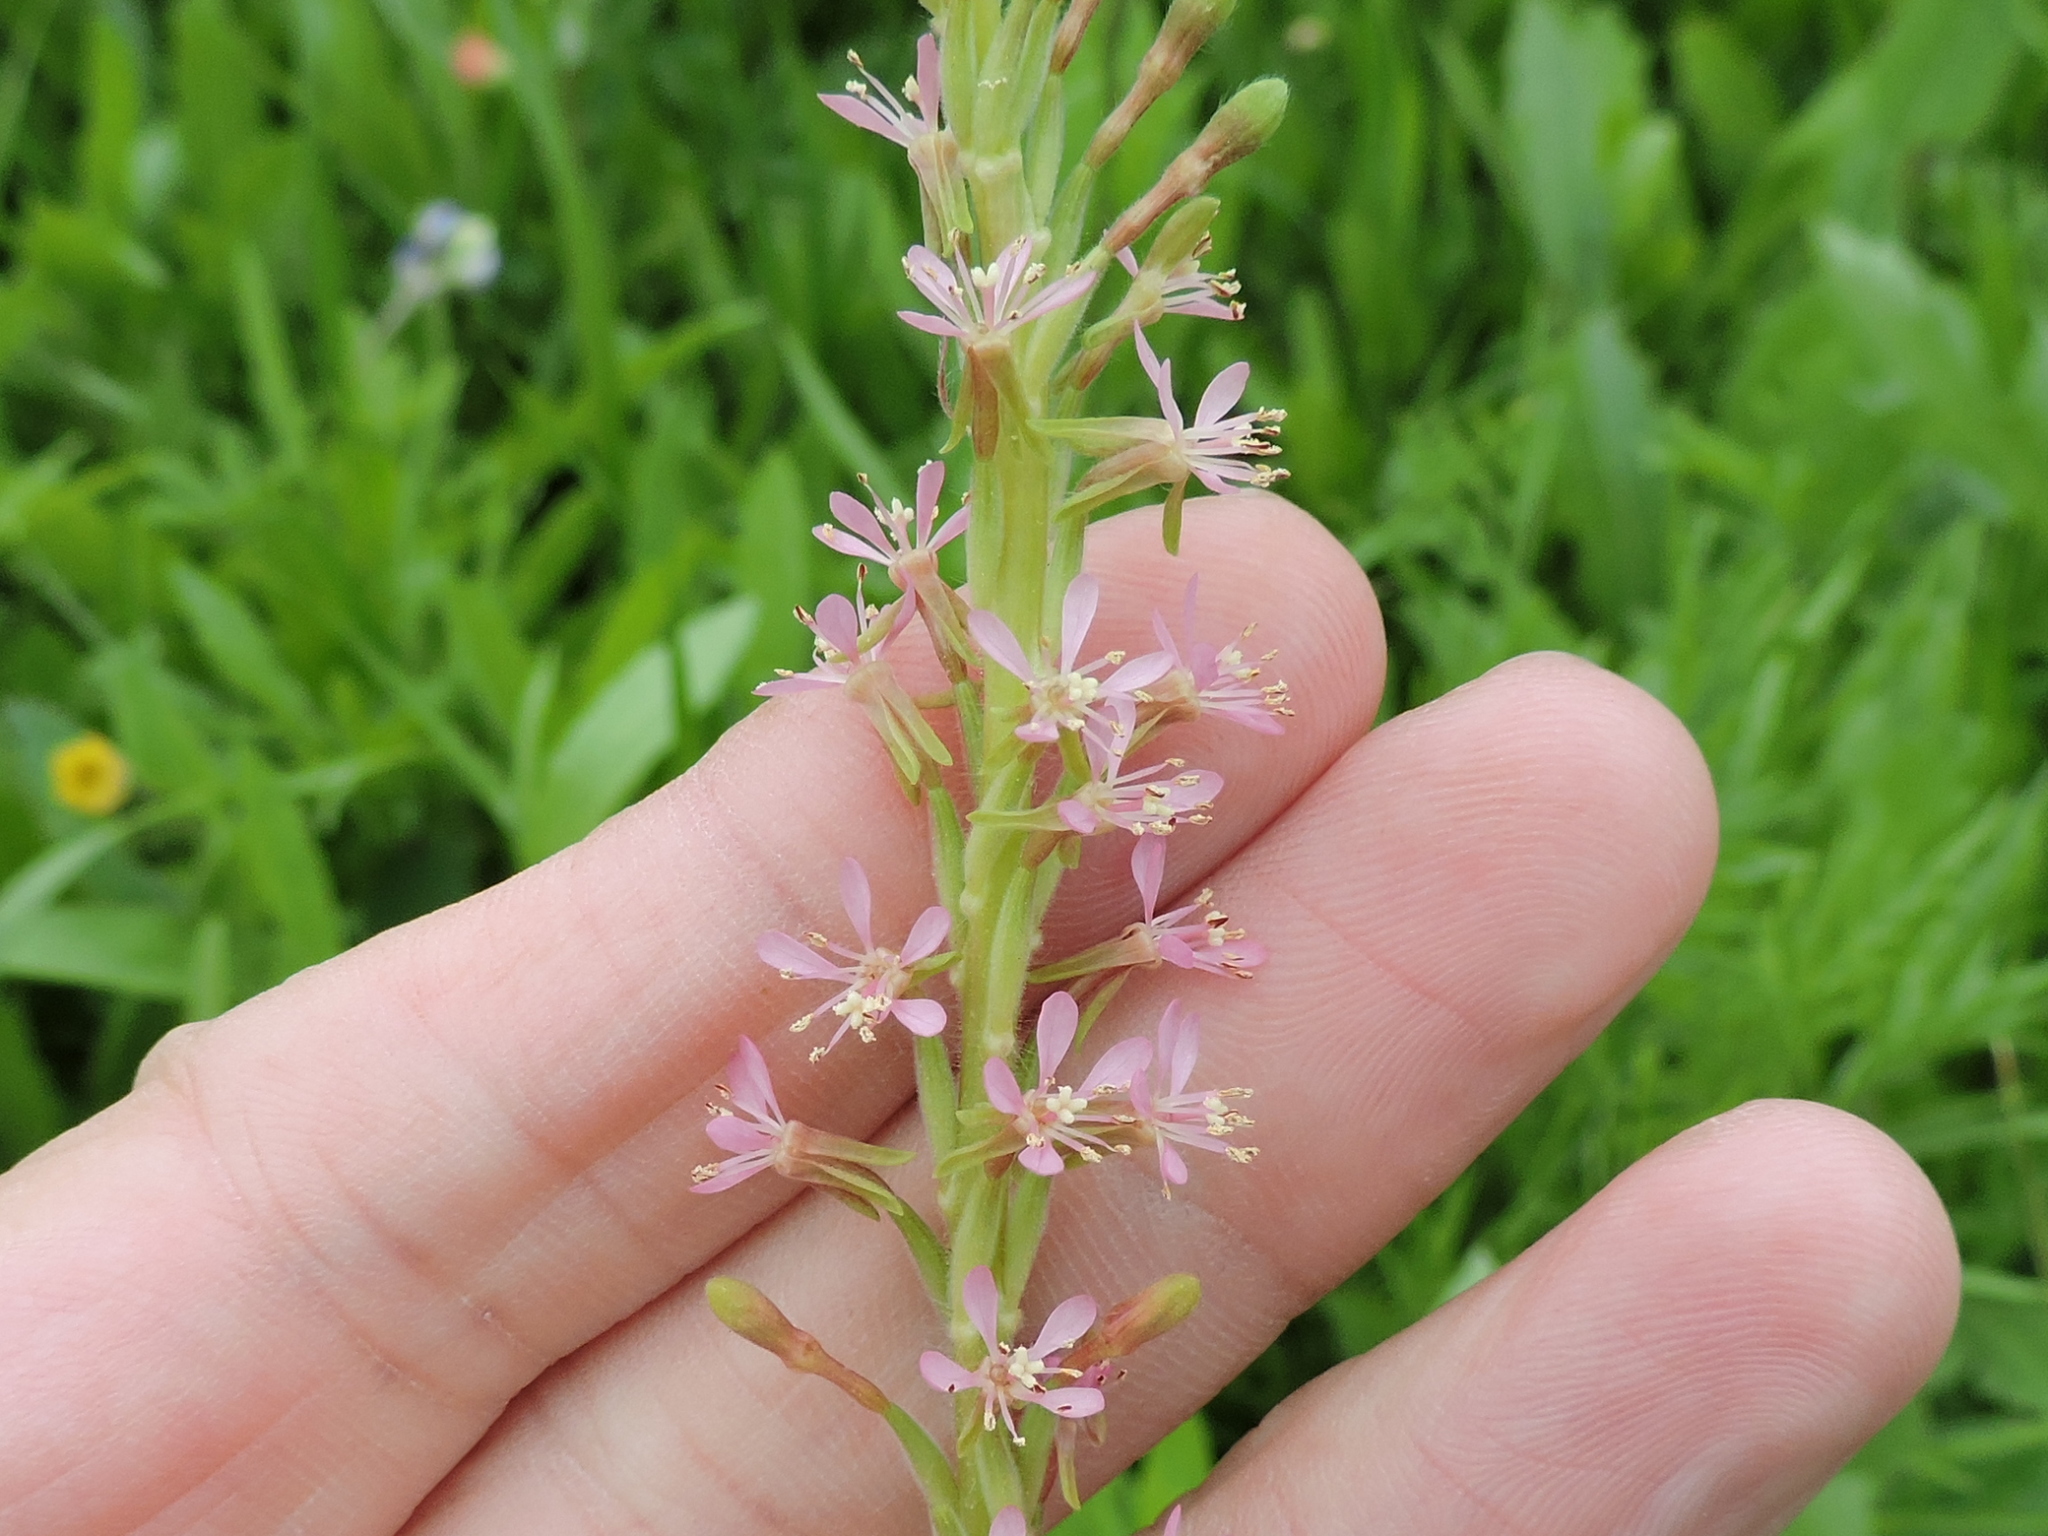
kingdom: Plantae
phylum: Tracheophyta
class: Magnoliopsida
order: Myrtales
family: Onagraceae
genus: Oenothera
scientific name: Oenothera curtiflora
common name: Velvetweed
